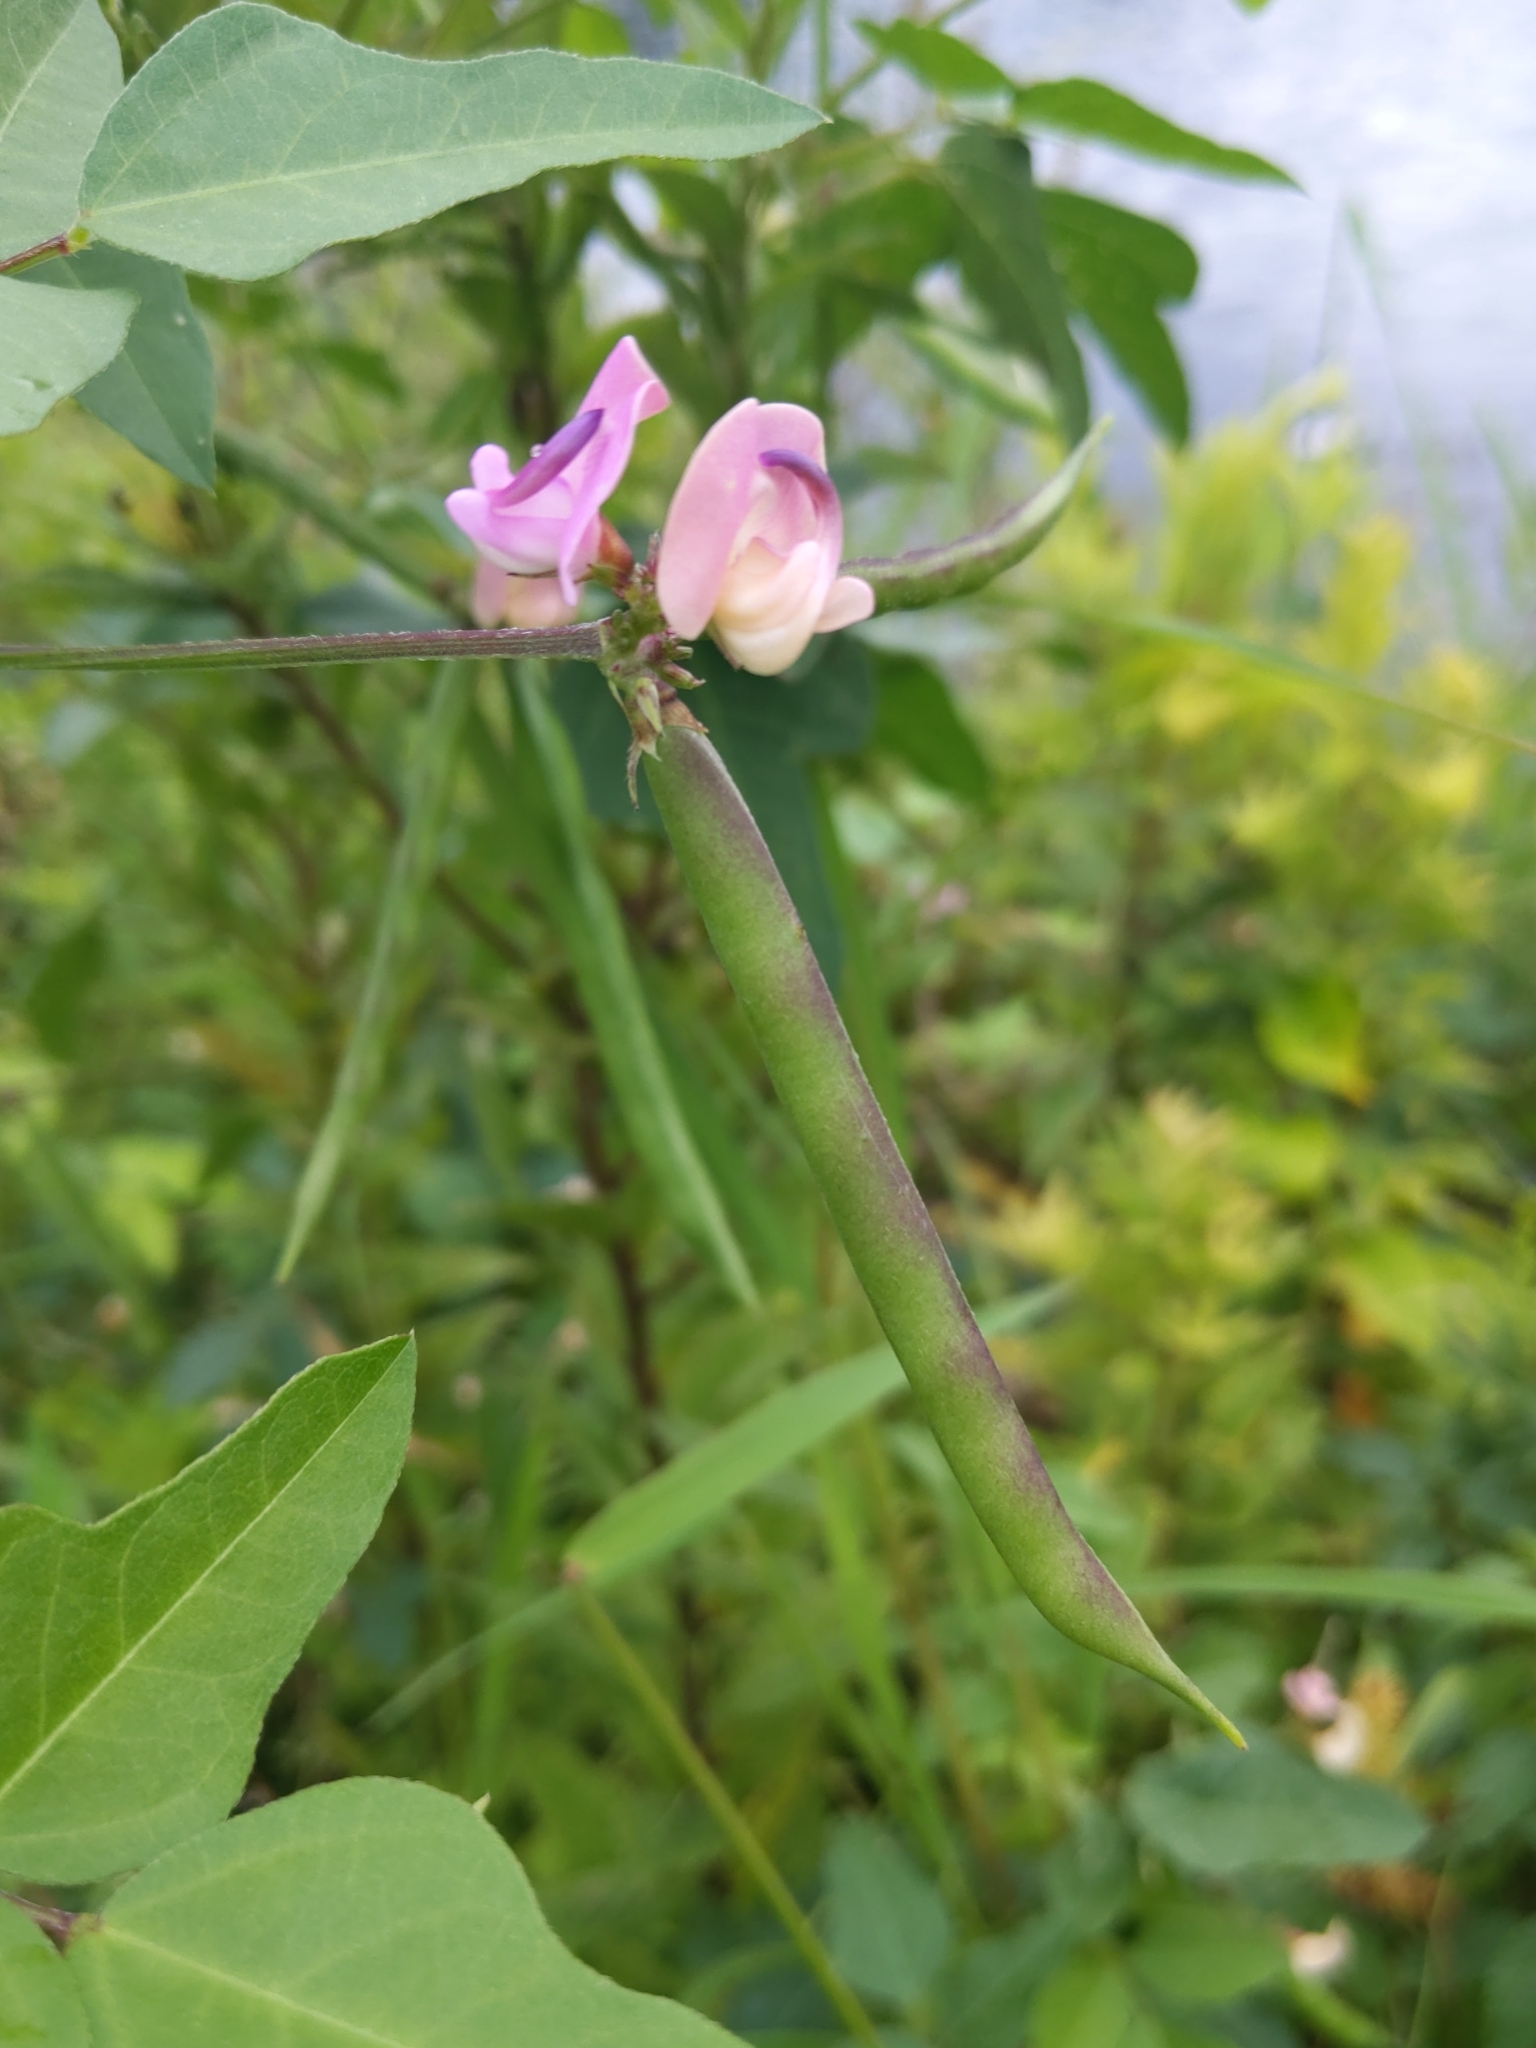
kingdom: Plantae
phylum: Tracheophyta
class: Magnoliopsida
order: Fabales
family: Fabaceae
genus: Strophostyles
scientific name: Strophostyles helvola
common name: Trailing wild bean
